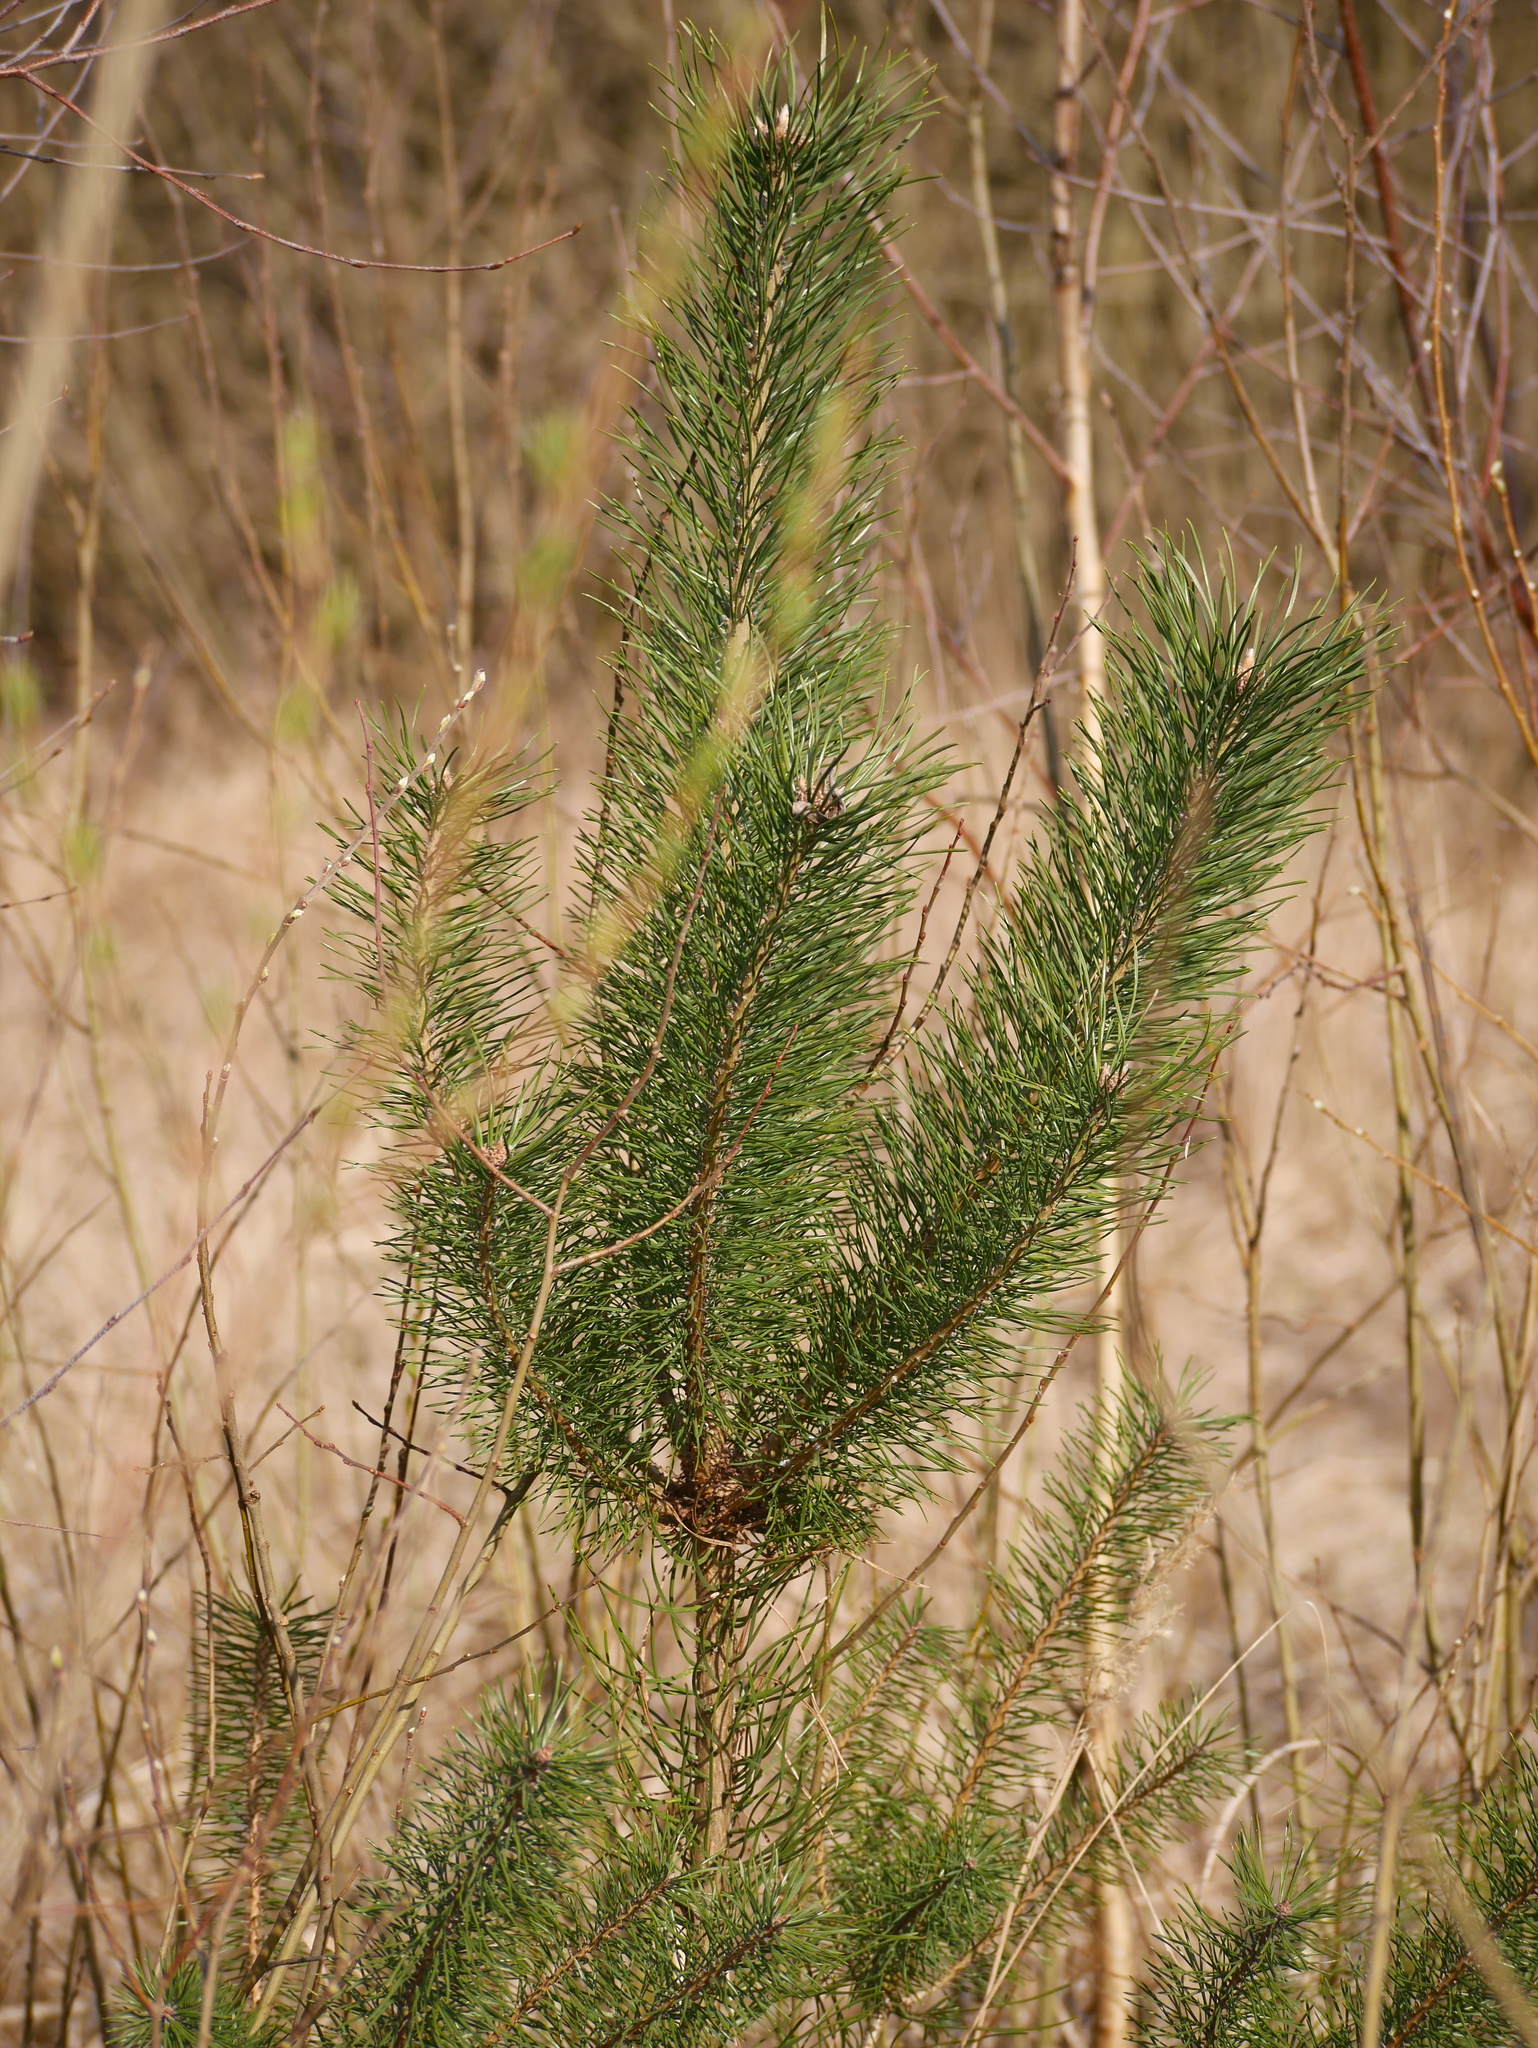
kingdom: Plantae
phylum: Tracheophyta
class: Pinopsida
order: Pinales
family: Pinaceae
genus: Pinus
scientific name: Pinus sylvestris
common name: Scots pine
